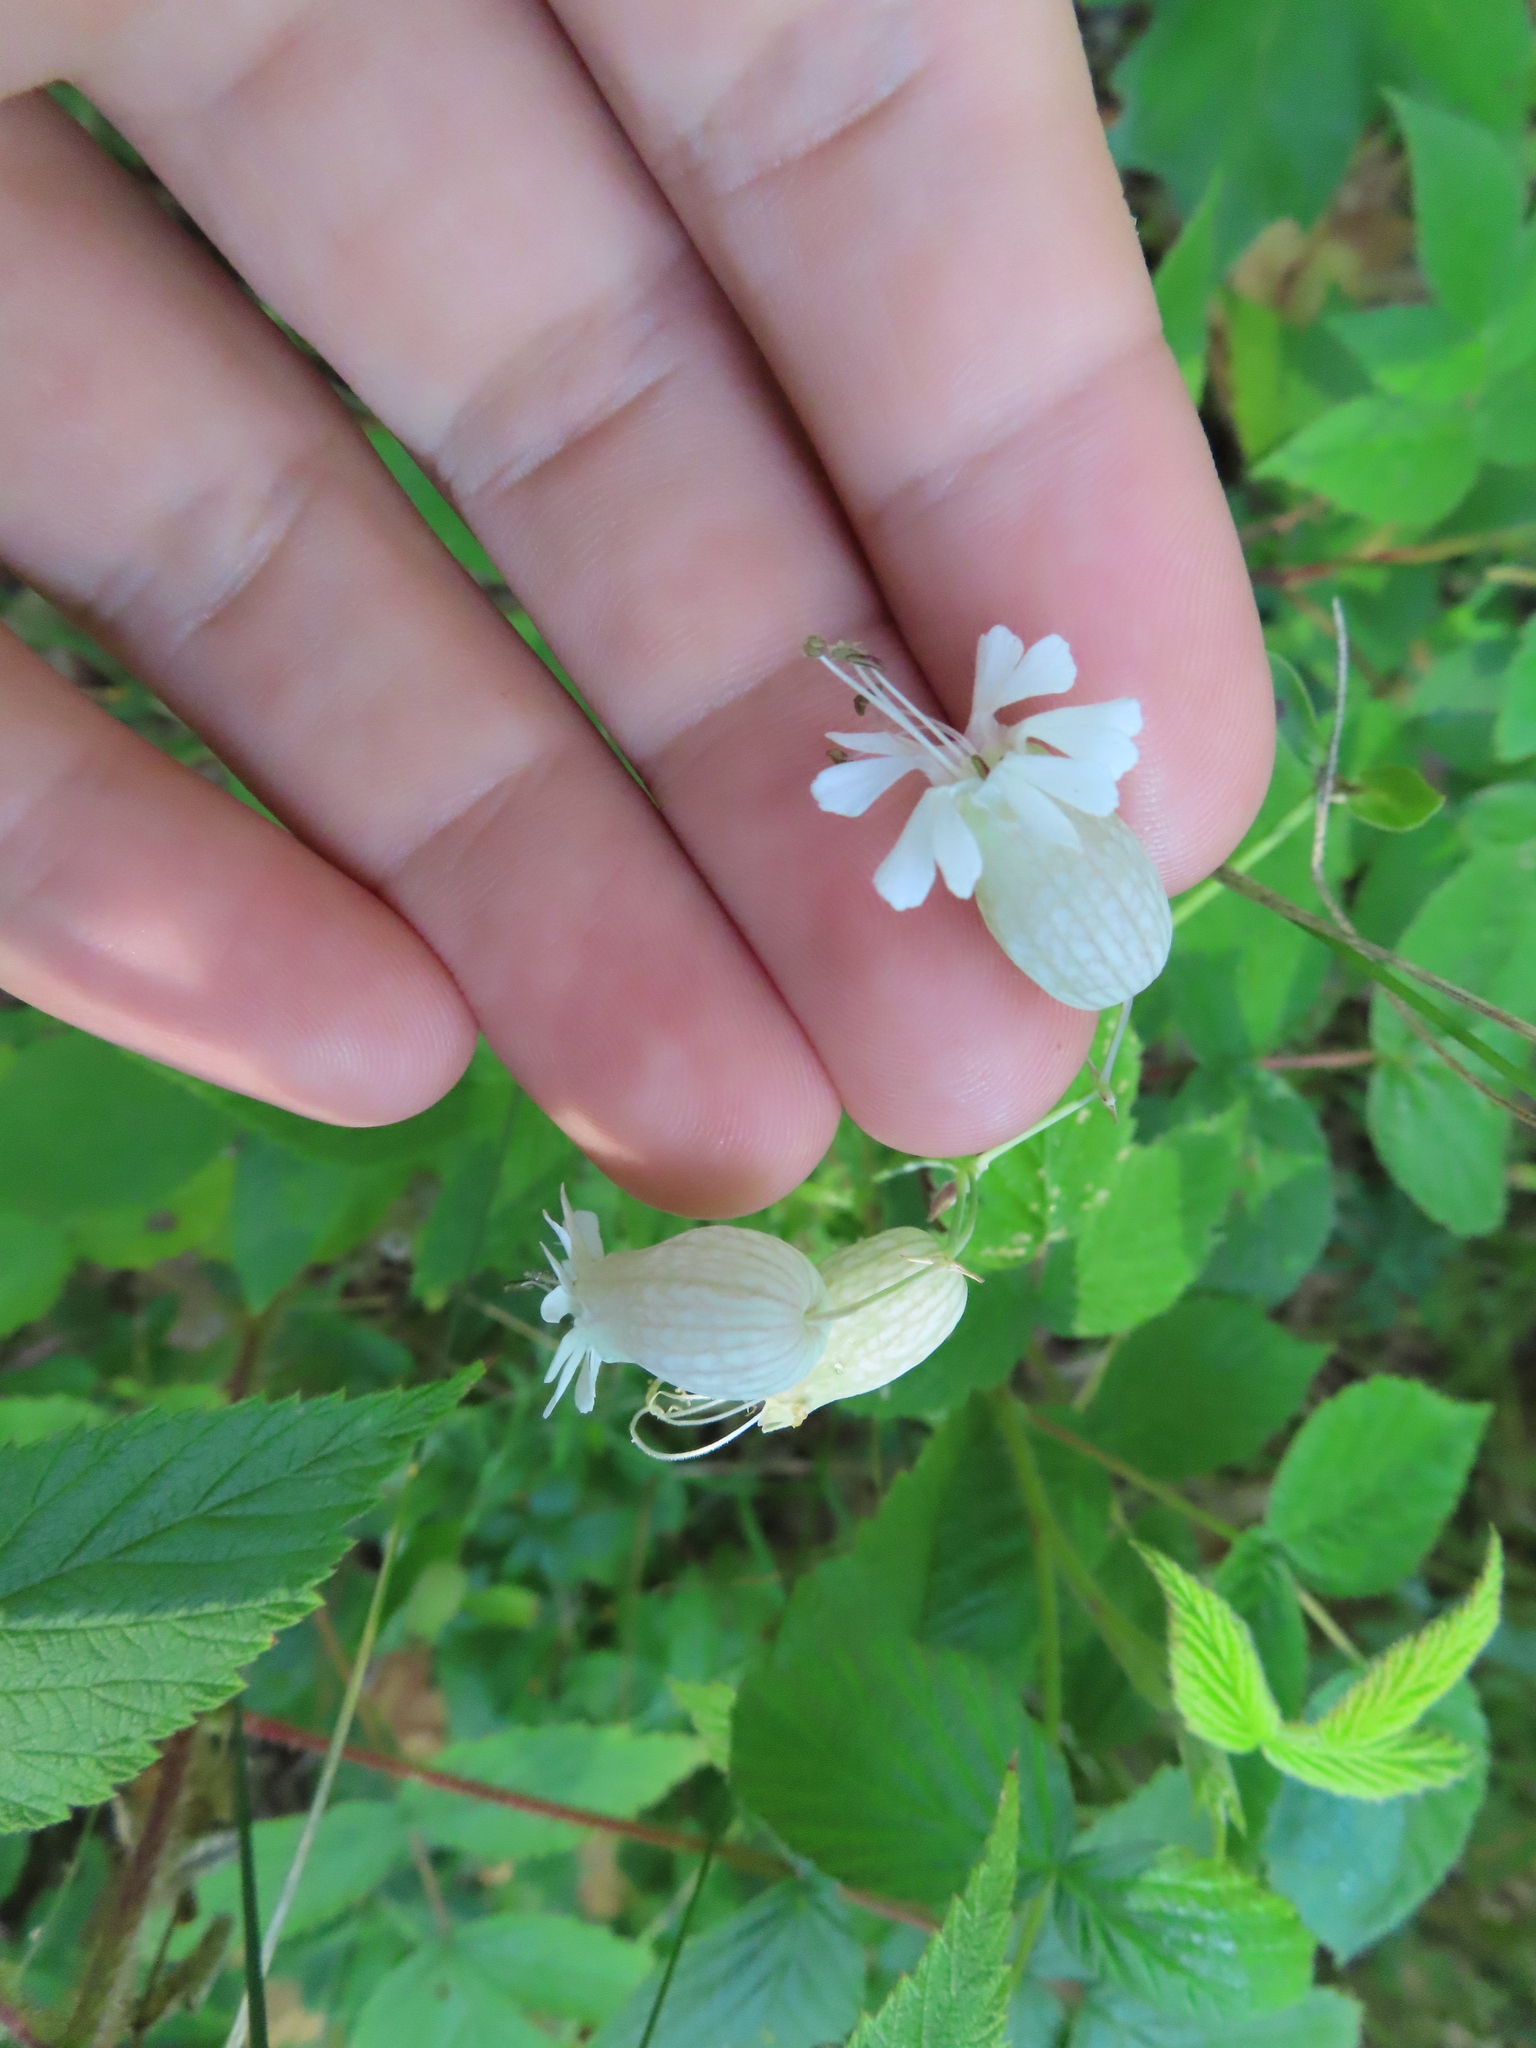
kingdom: Plantae
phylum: Tracheophyta
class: Magnoliopsida
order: Caryophyllales
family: Caryophyllaceae
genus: Silene
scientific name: Silene vulgaris
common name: Bladder campion
